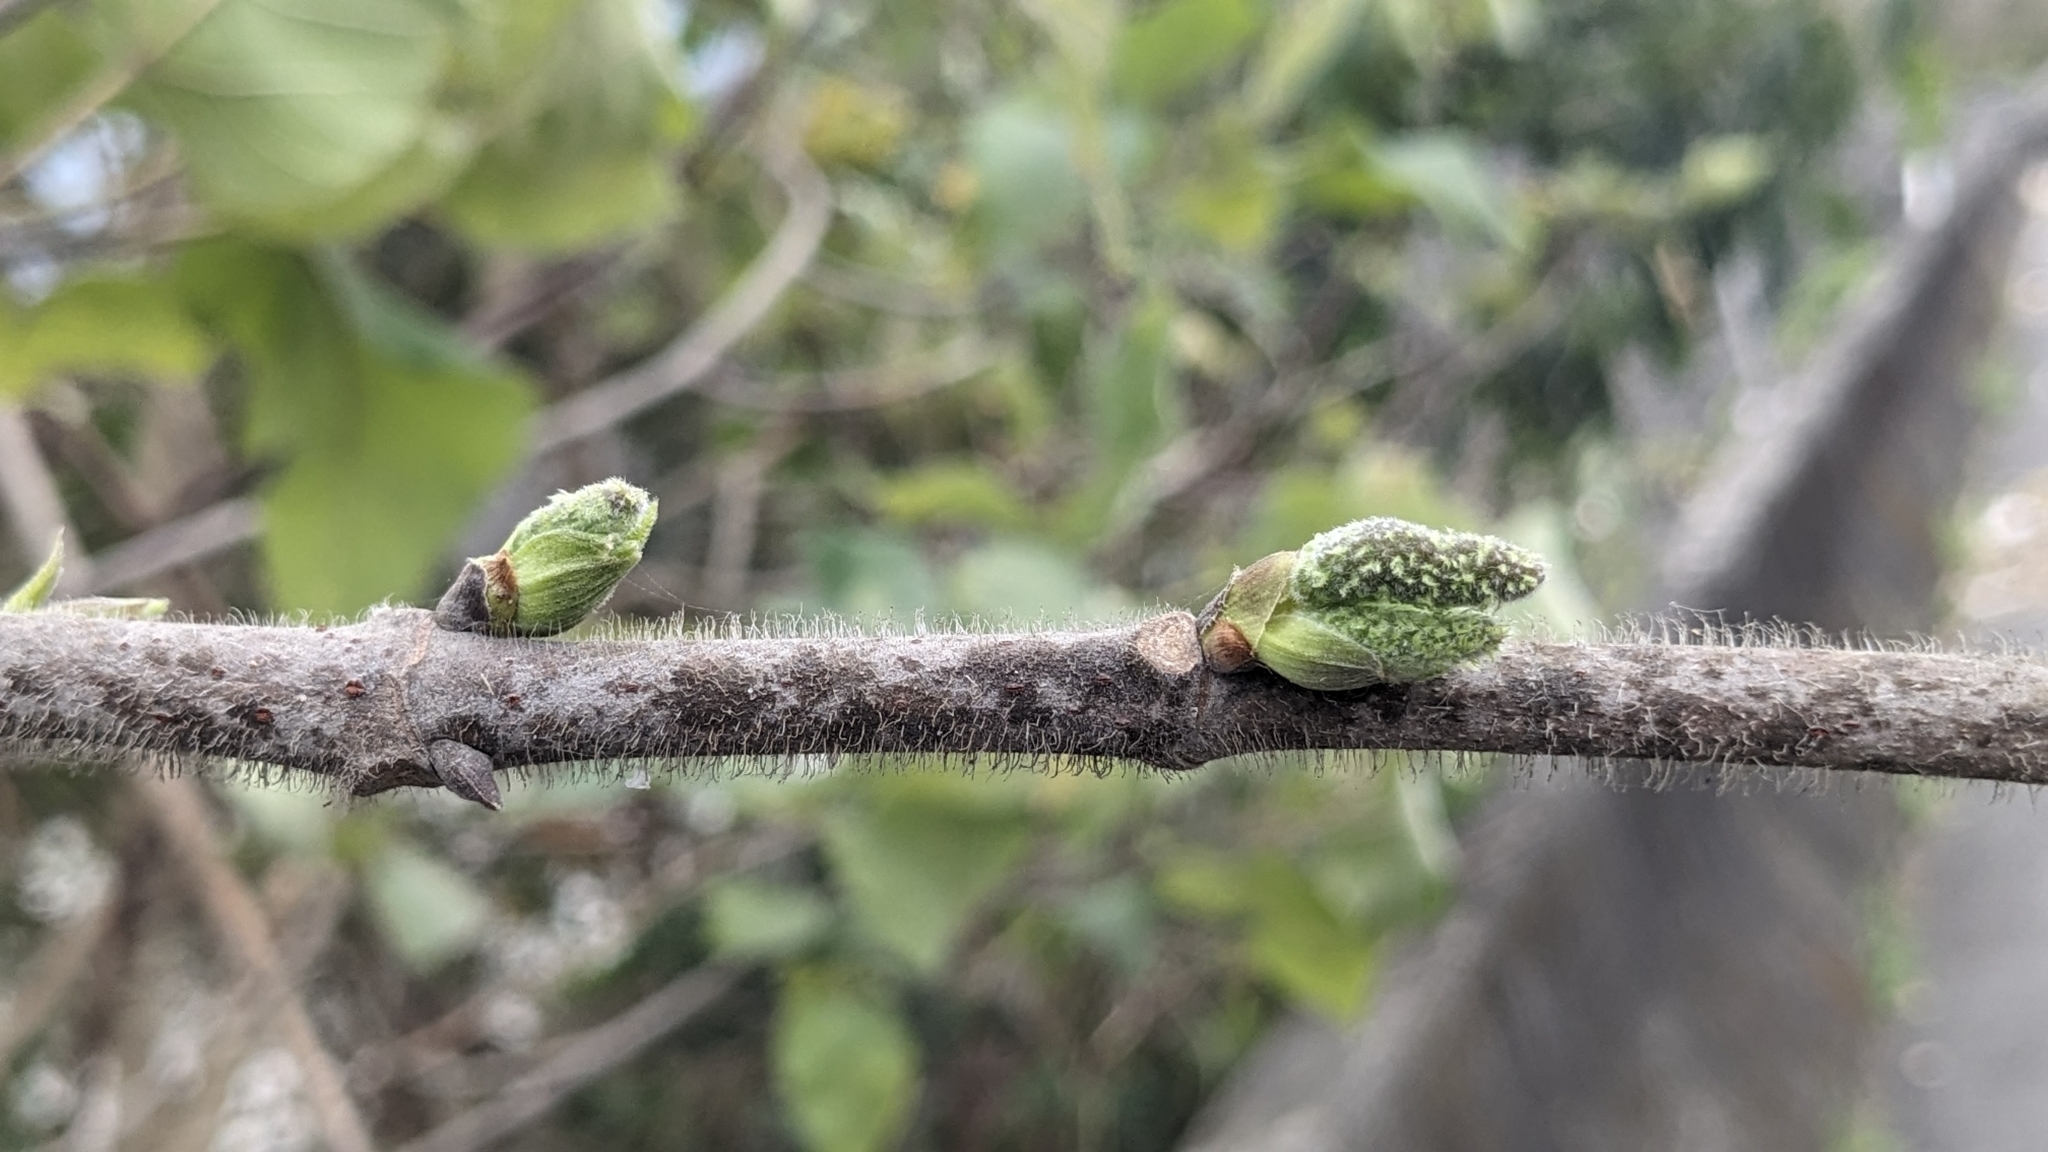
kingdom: Plantae
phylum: Tracheophyta
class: Magnoliopsida
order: Rosales
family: Moraceae
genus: Broussonetia
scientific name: Broussonetia papyrifera
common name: Paper mulberry
